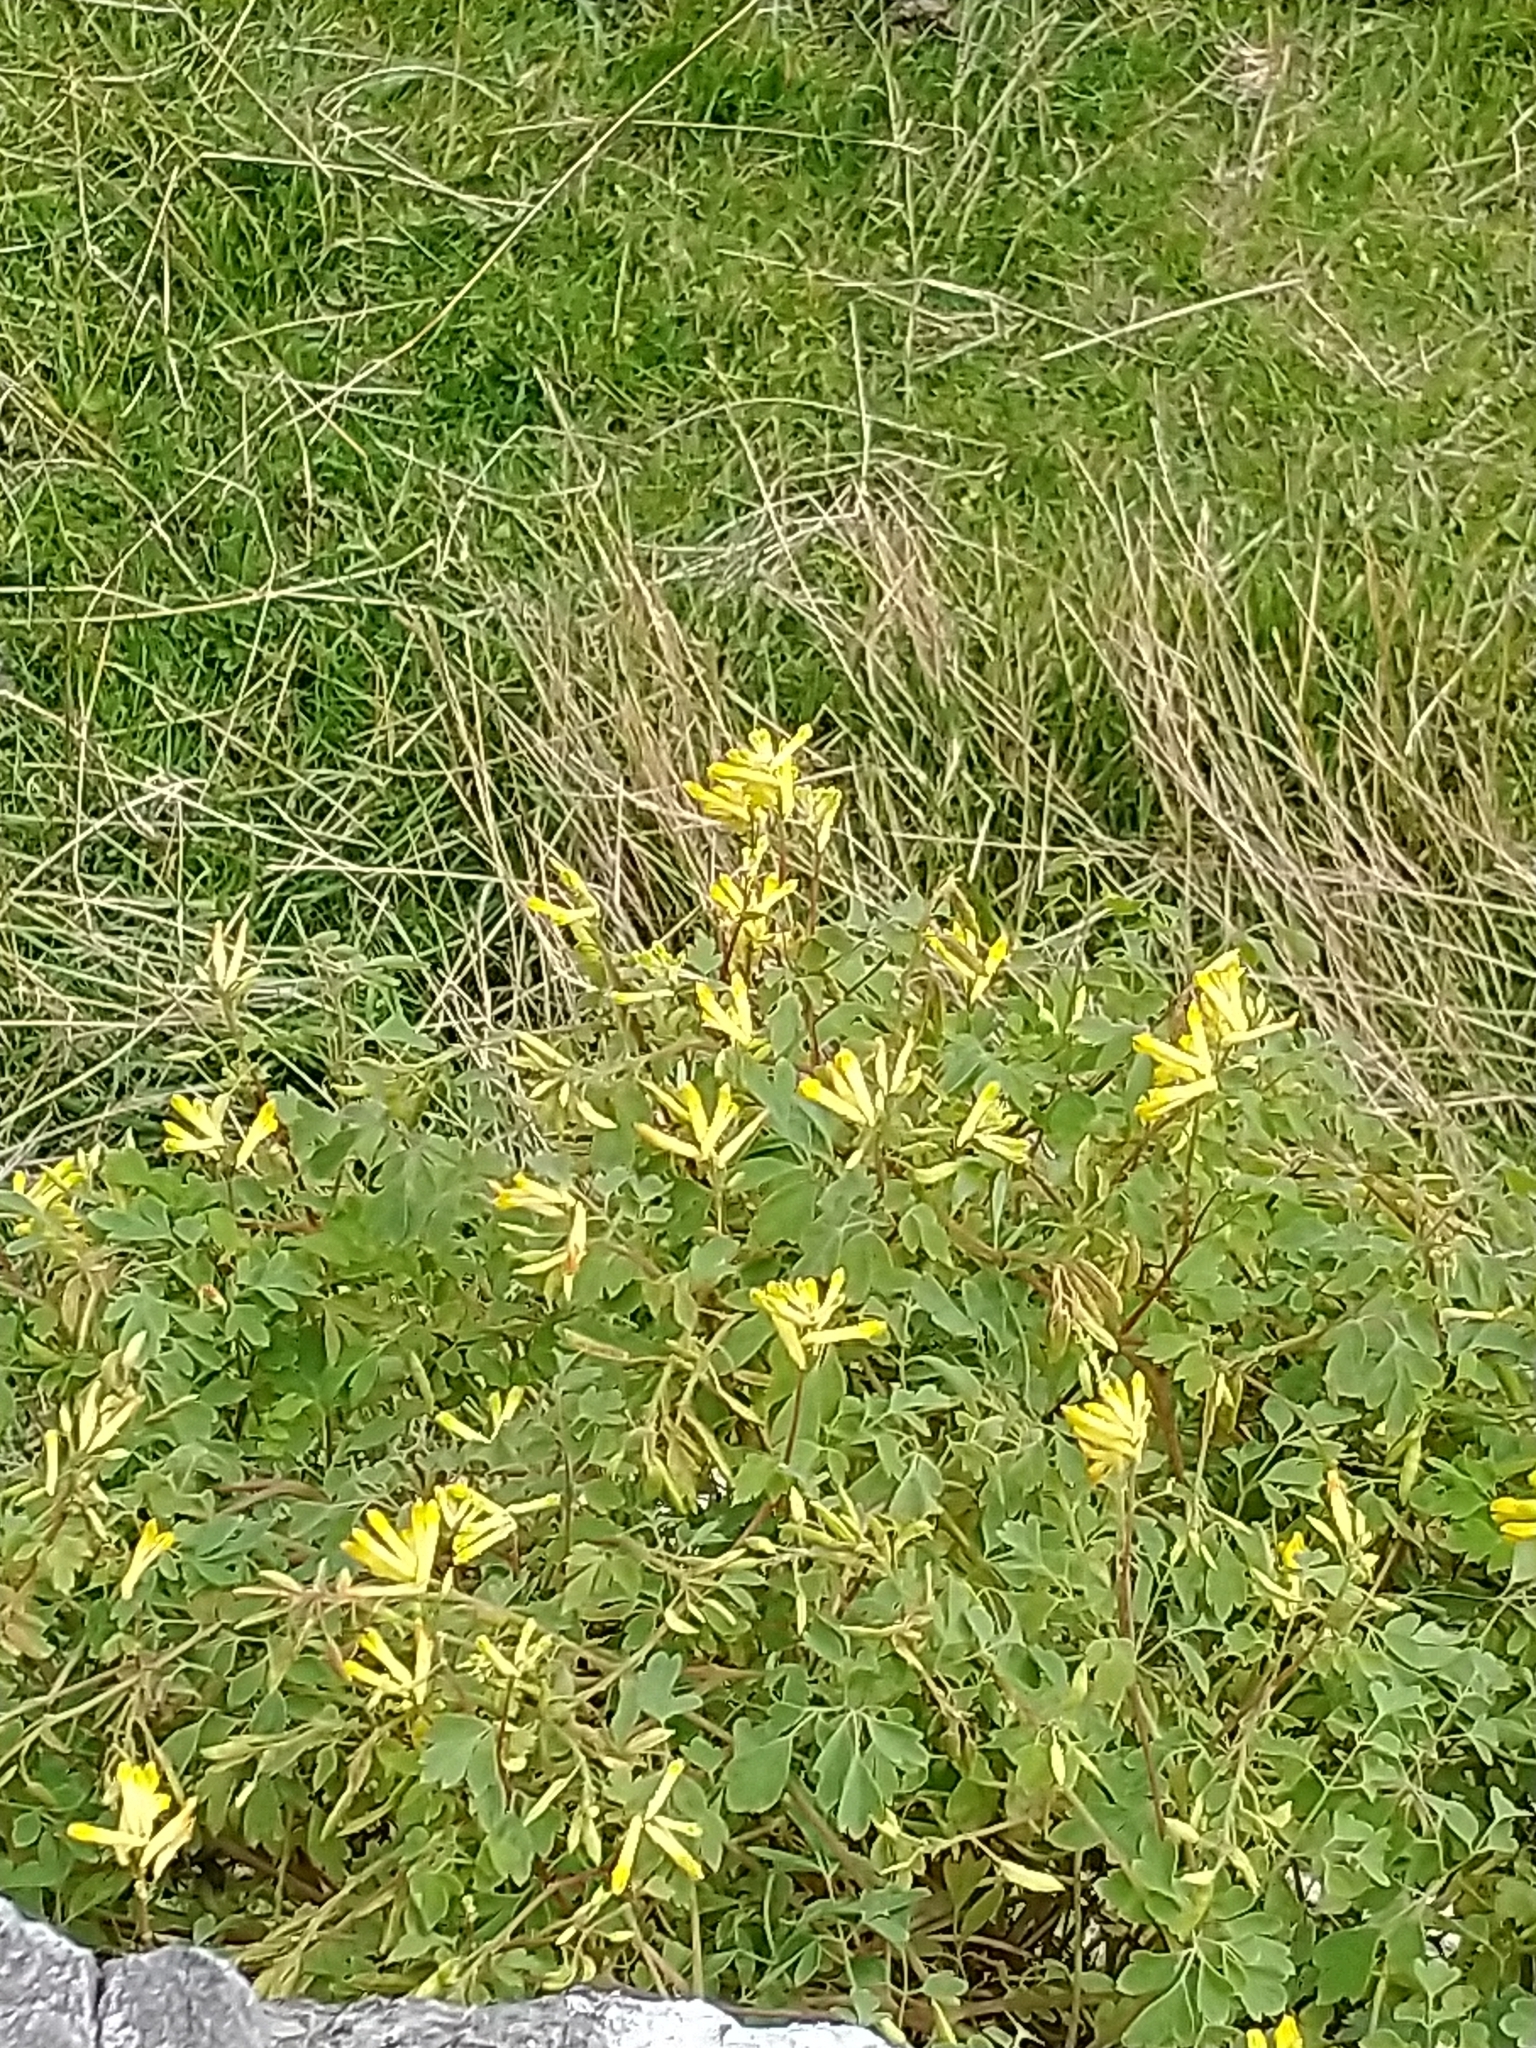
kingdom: Plantae
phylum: Tracheophyta
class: Magnoliopsida
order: Ranunculales
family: Papaveraceae
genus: Pseudofumaria
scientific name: Pseudofumaria lutea
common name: Yellow corydalis
